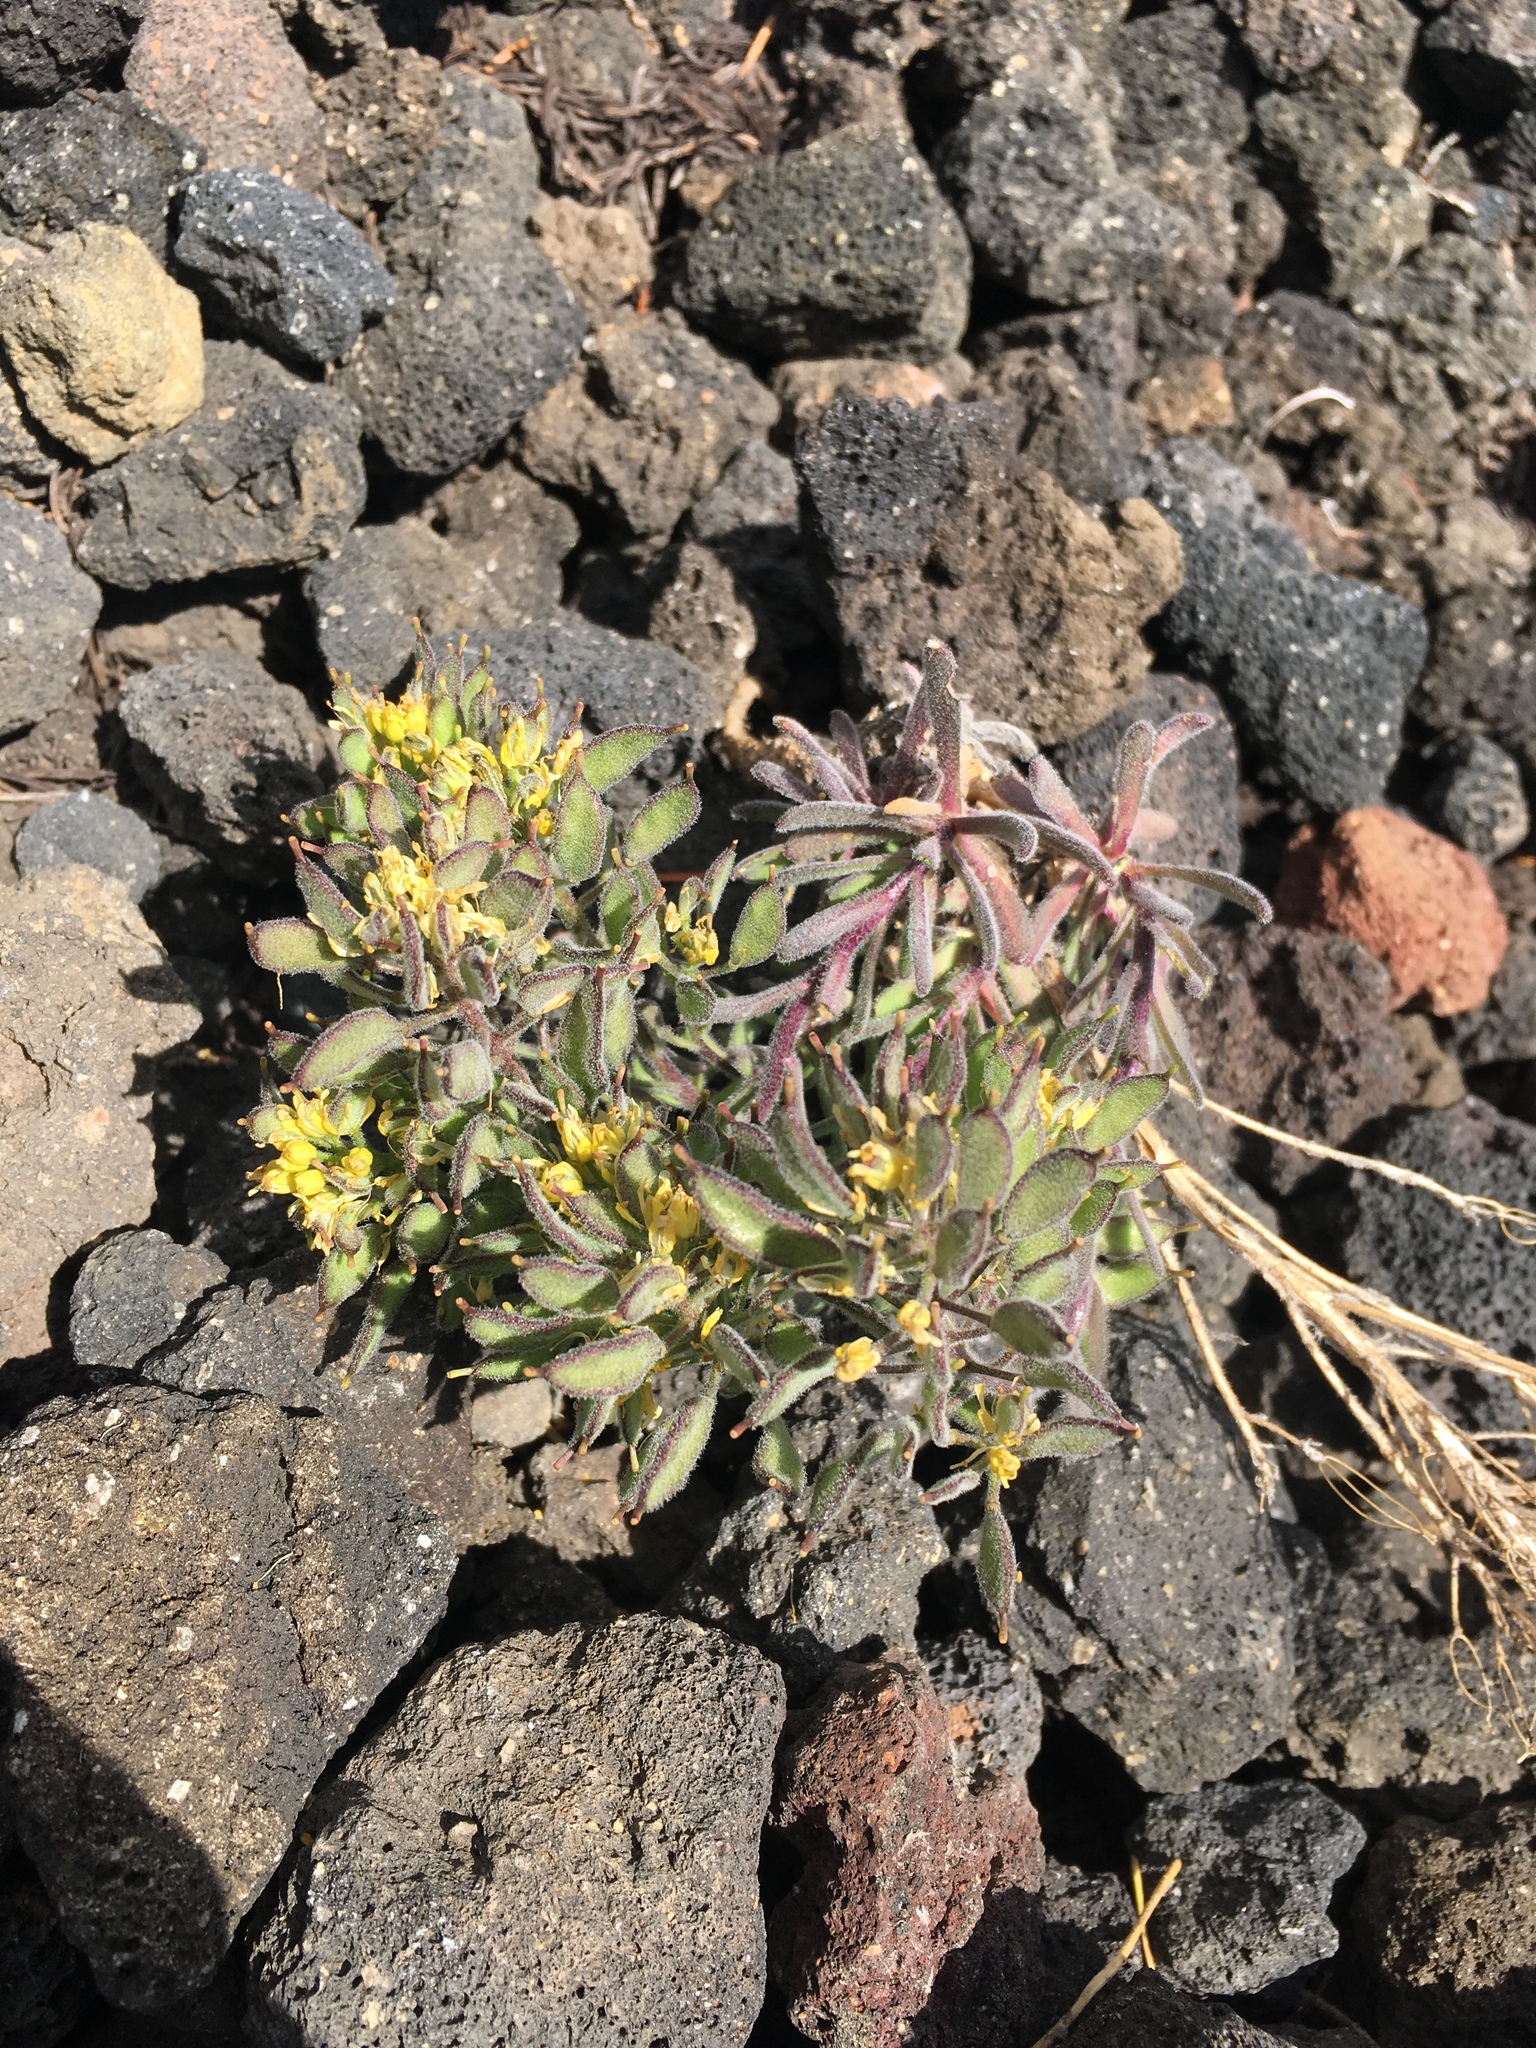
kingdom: Plantae
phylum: Tracheophyta
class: Magnoliopsida
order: Brassicales
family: Brassicaceae
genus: Draba
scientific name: Draba aureola
